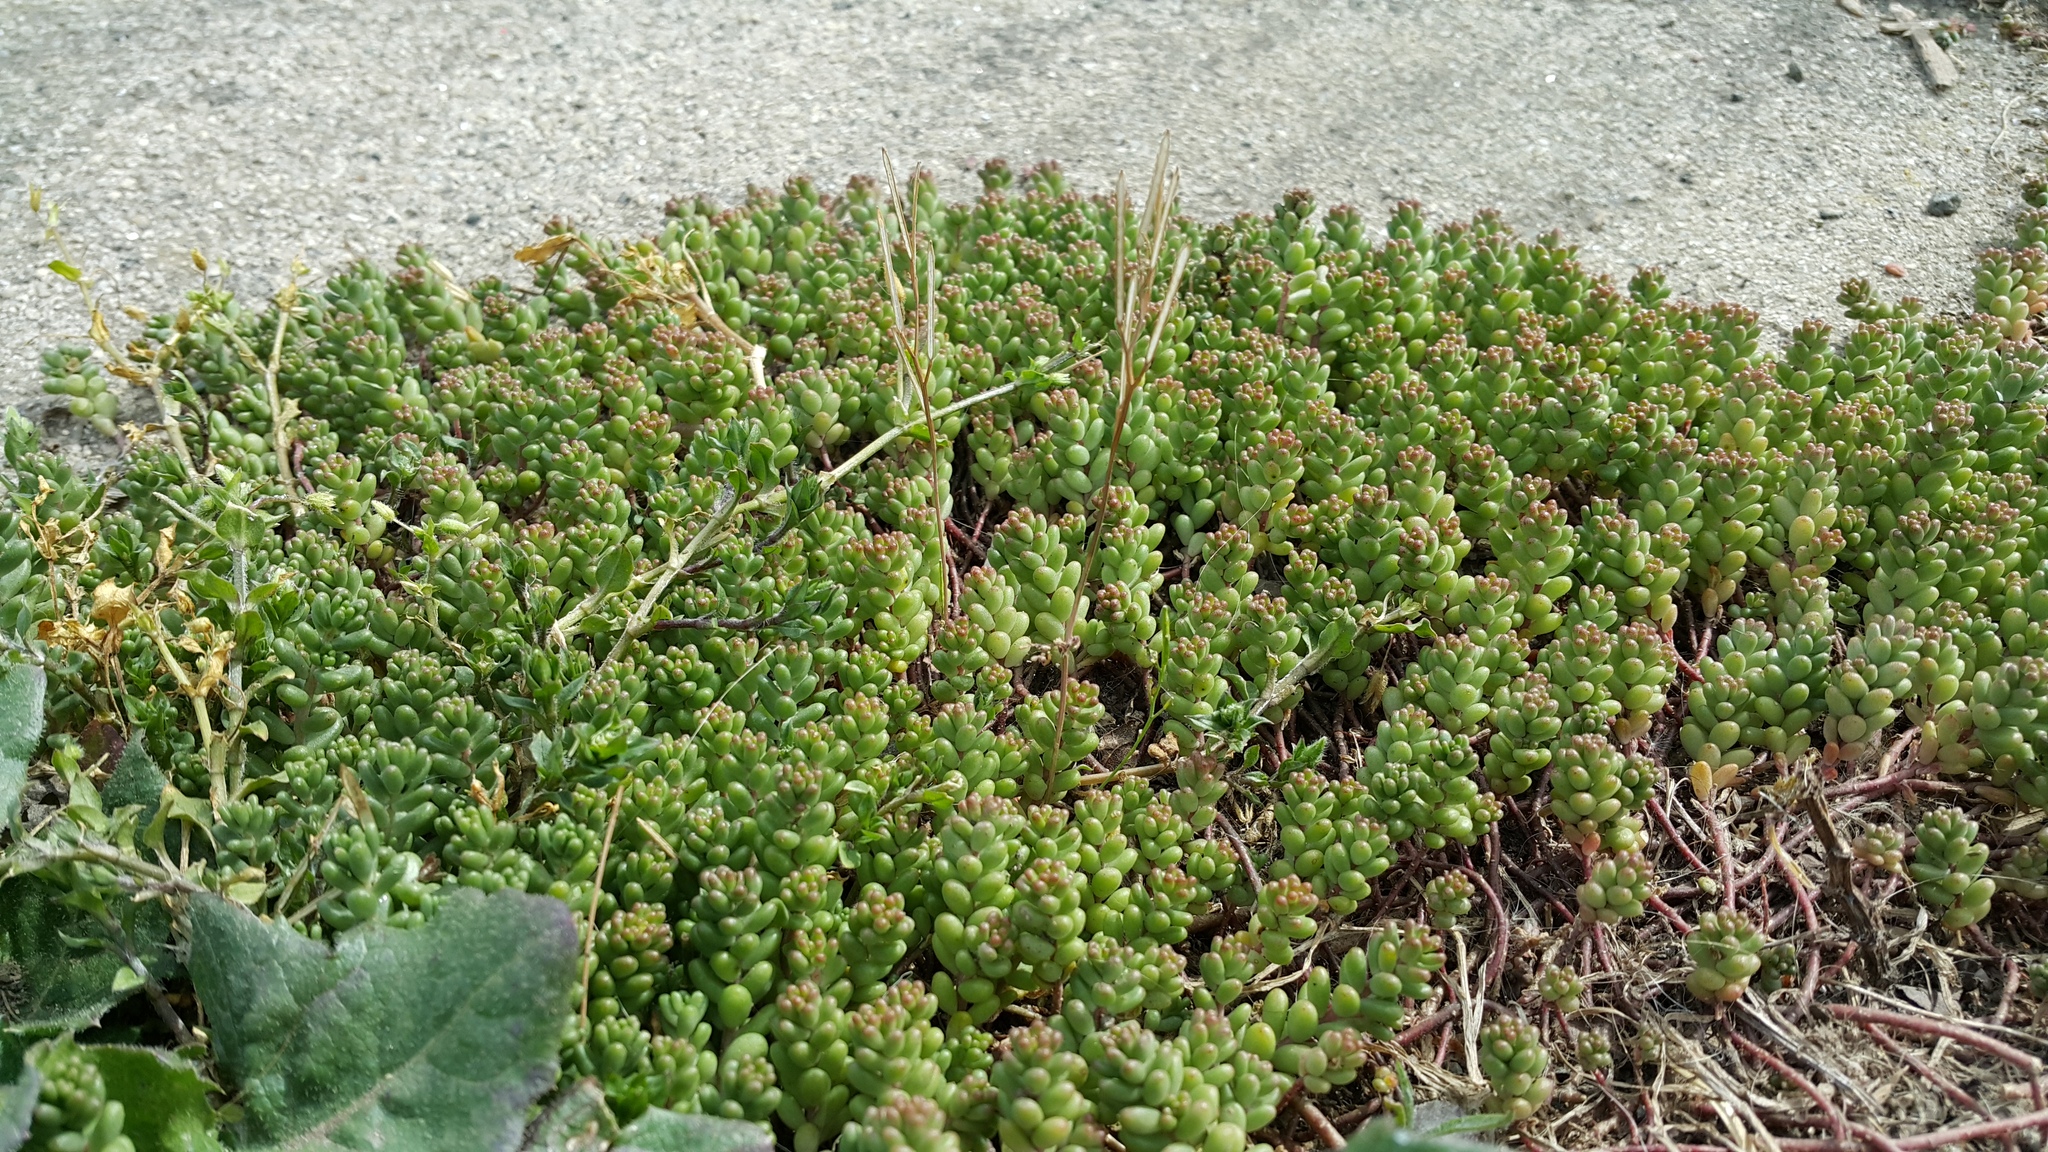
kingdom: Plantae
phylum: Tracheophyta
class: Magnoliopsida
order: Saxifragales
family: Crassulaceae
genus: Sedum
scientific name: Sedum album
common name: White stonecrop
